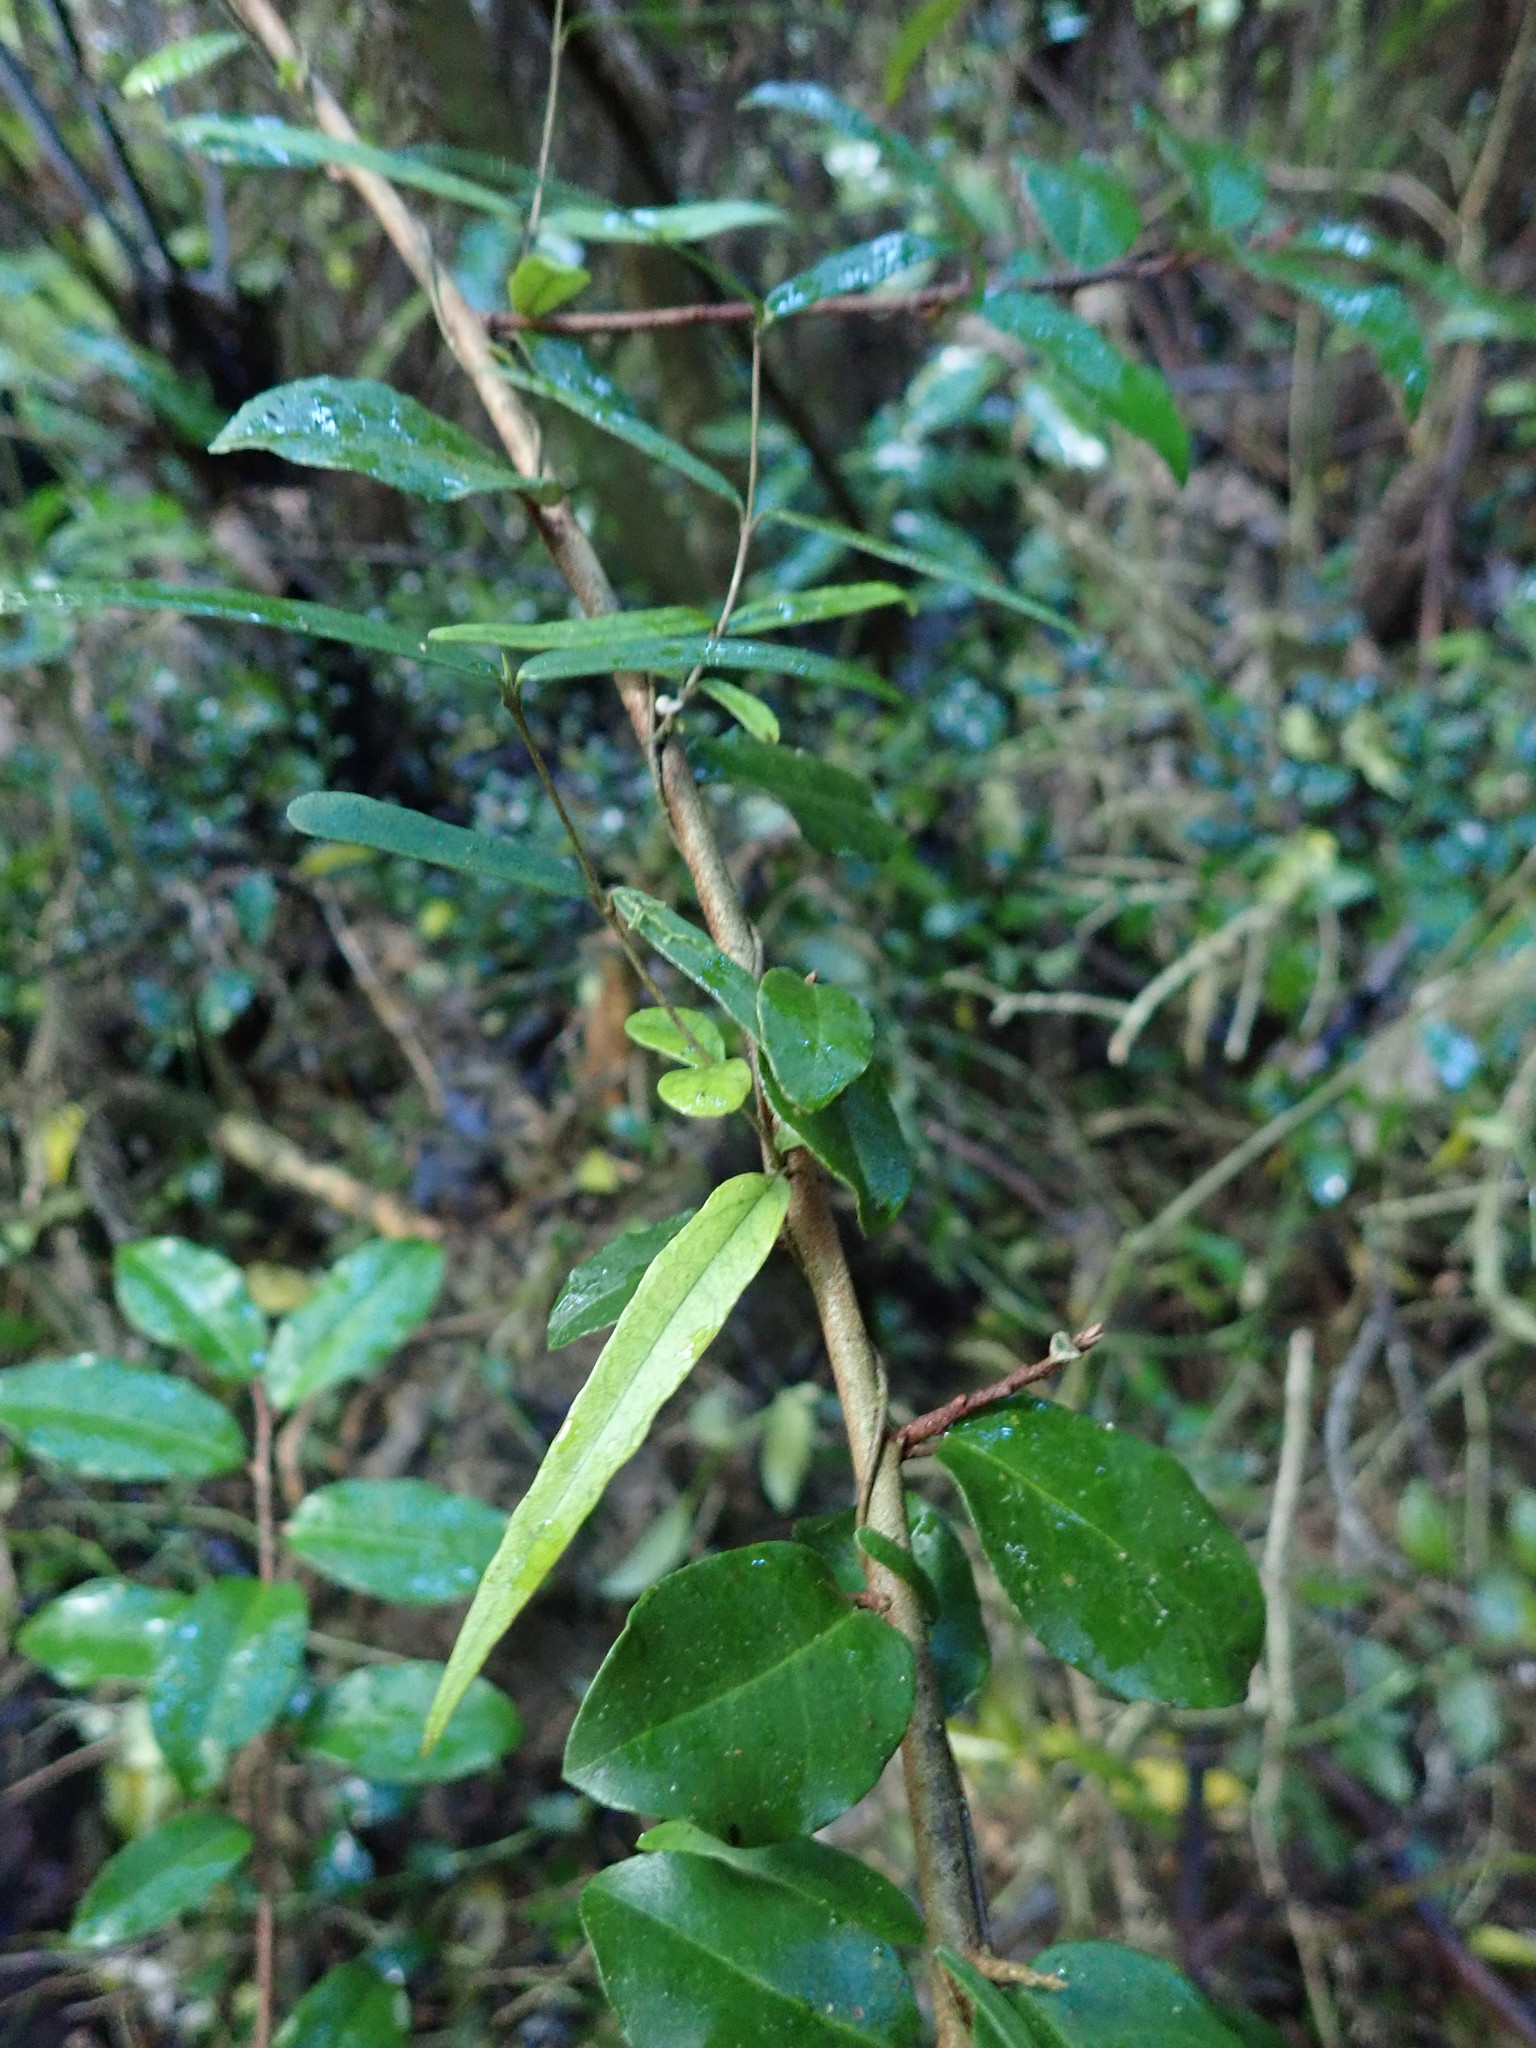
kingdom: Plantae
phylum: Tracheophyta
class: Magnoliopsida
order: Gentianales
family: Apocynaceae
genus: Parsonsia
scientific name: Parsonsia heterophylla
